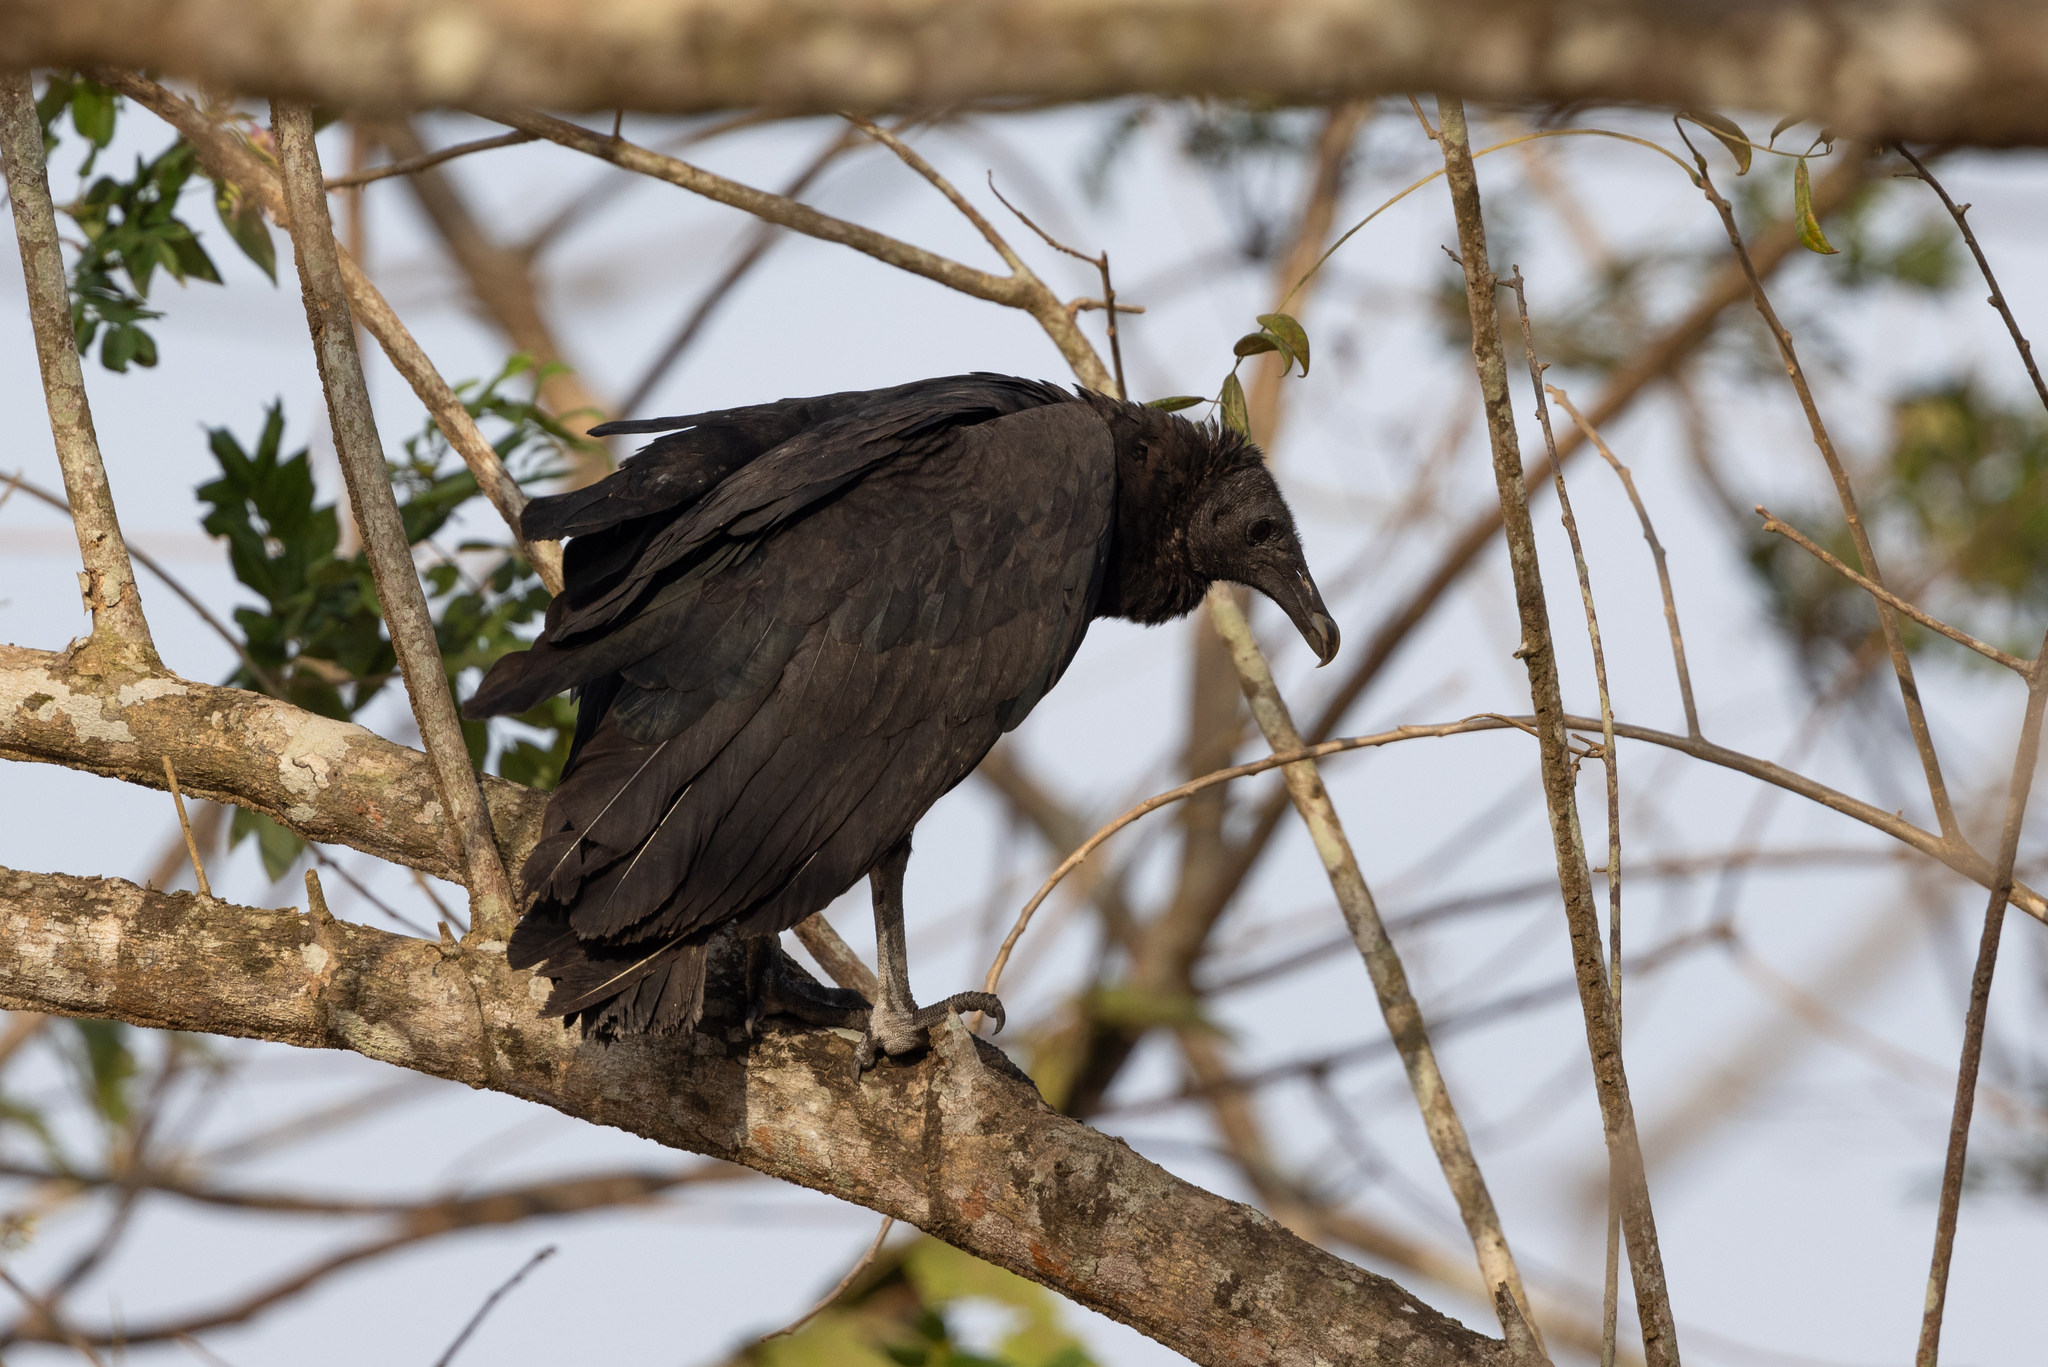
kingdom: Animalia
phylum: Chordata
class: Aves
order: Accipitriformes
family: Cathartidae
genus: Coragyps
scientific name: Coragyps atratus
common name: Black vulture
